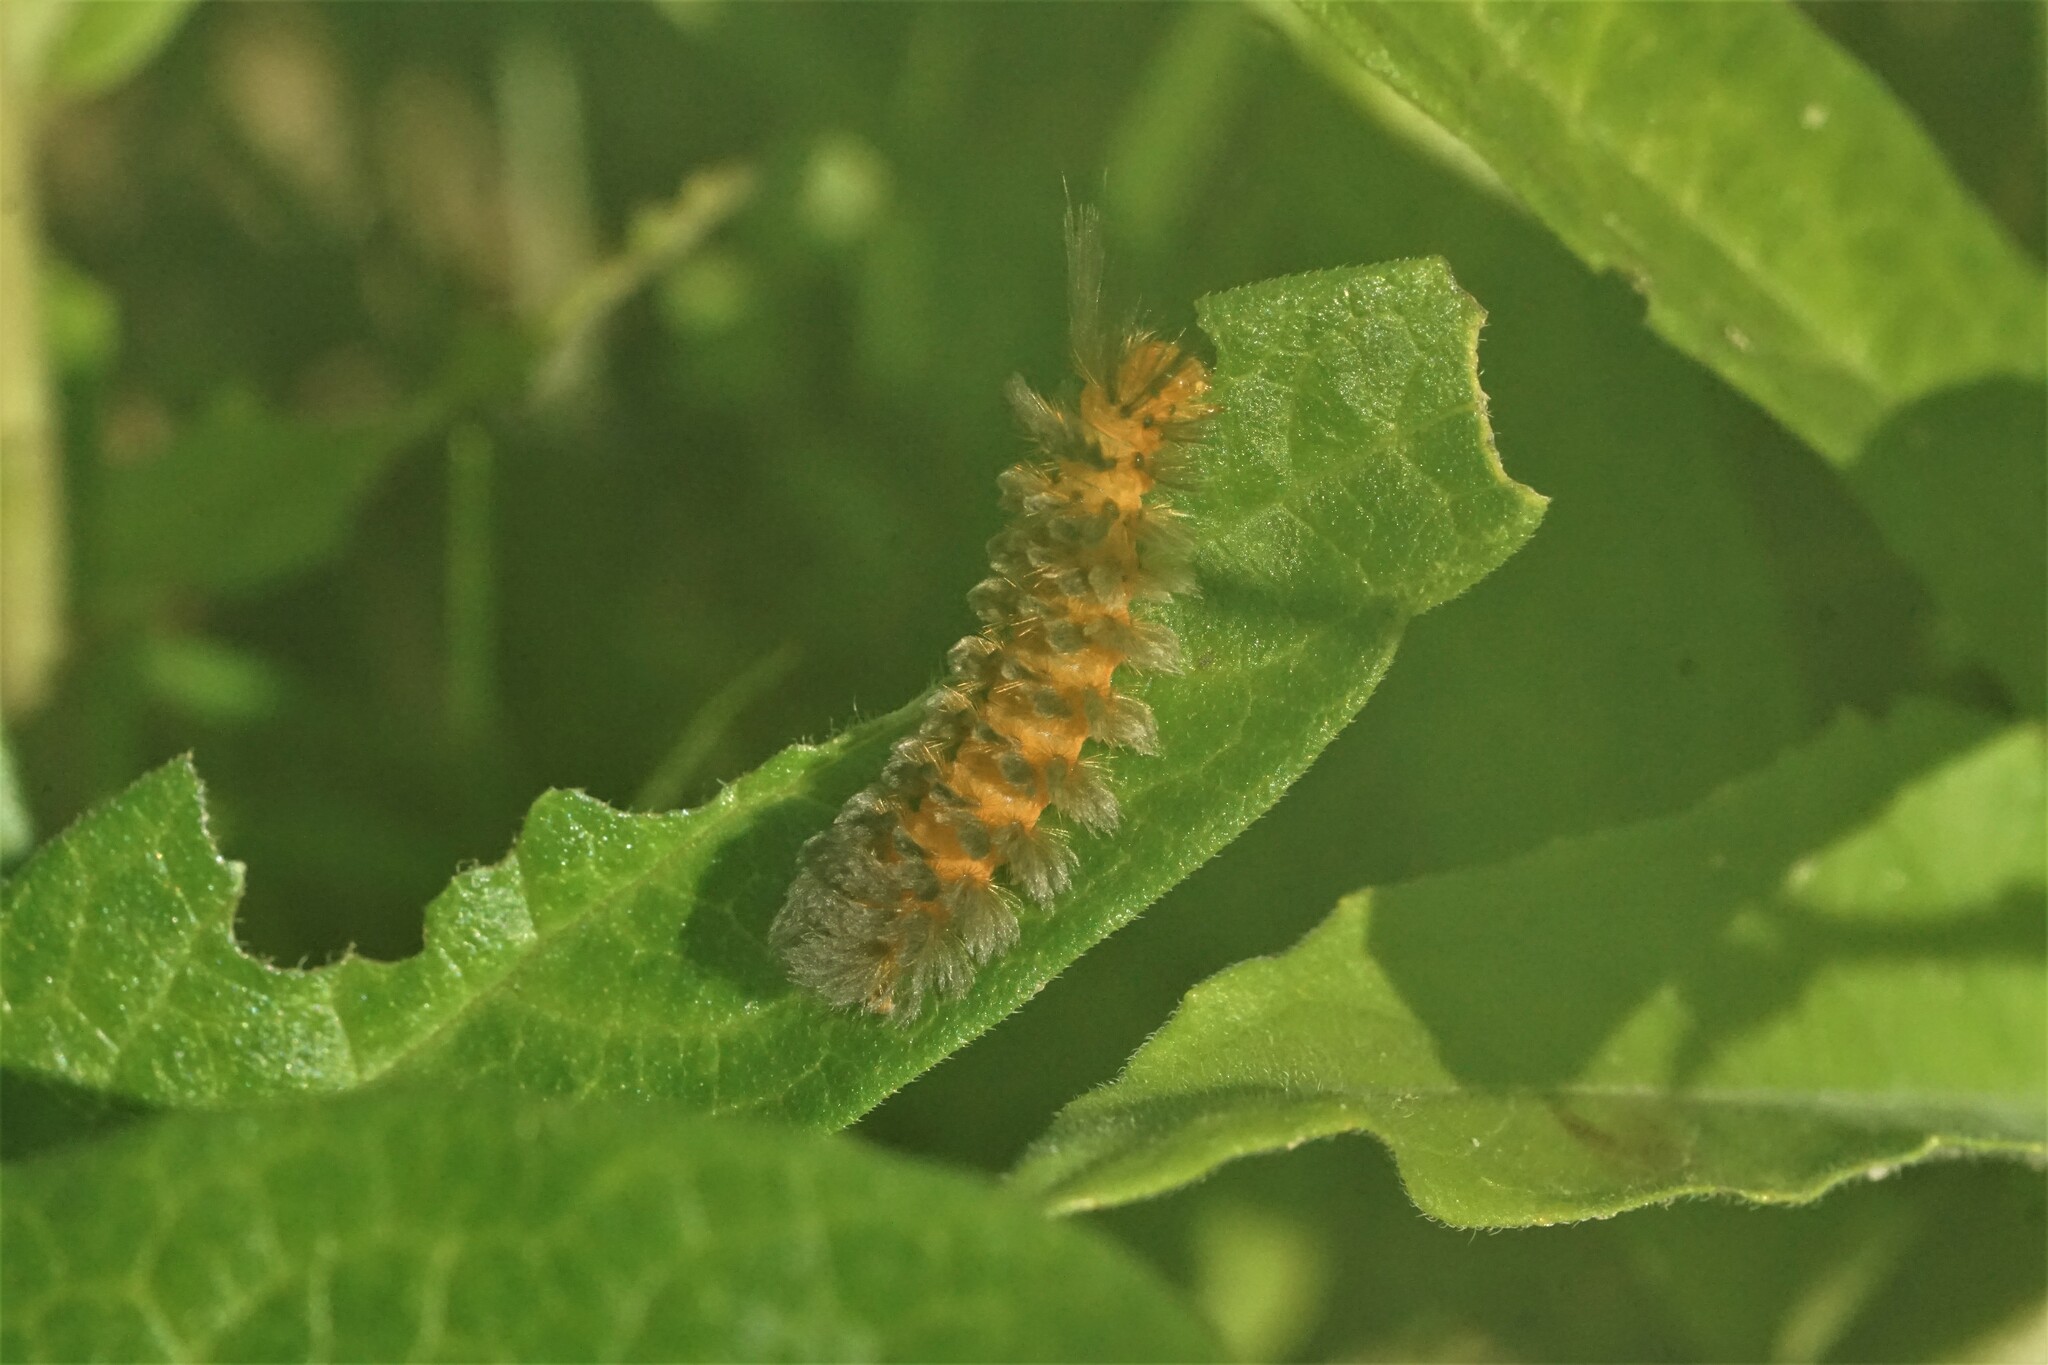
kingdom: Animalia
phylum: Arthropoda
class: Insecta
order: Lepidoptera
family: Erebidae
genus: Cycnia
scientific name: Cycnia collaris
